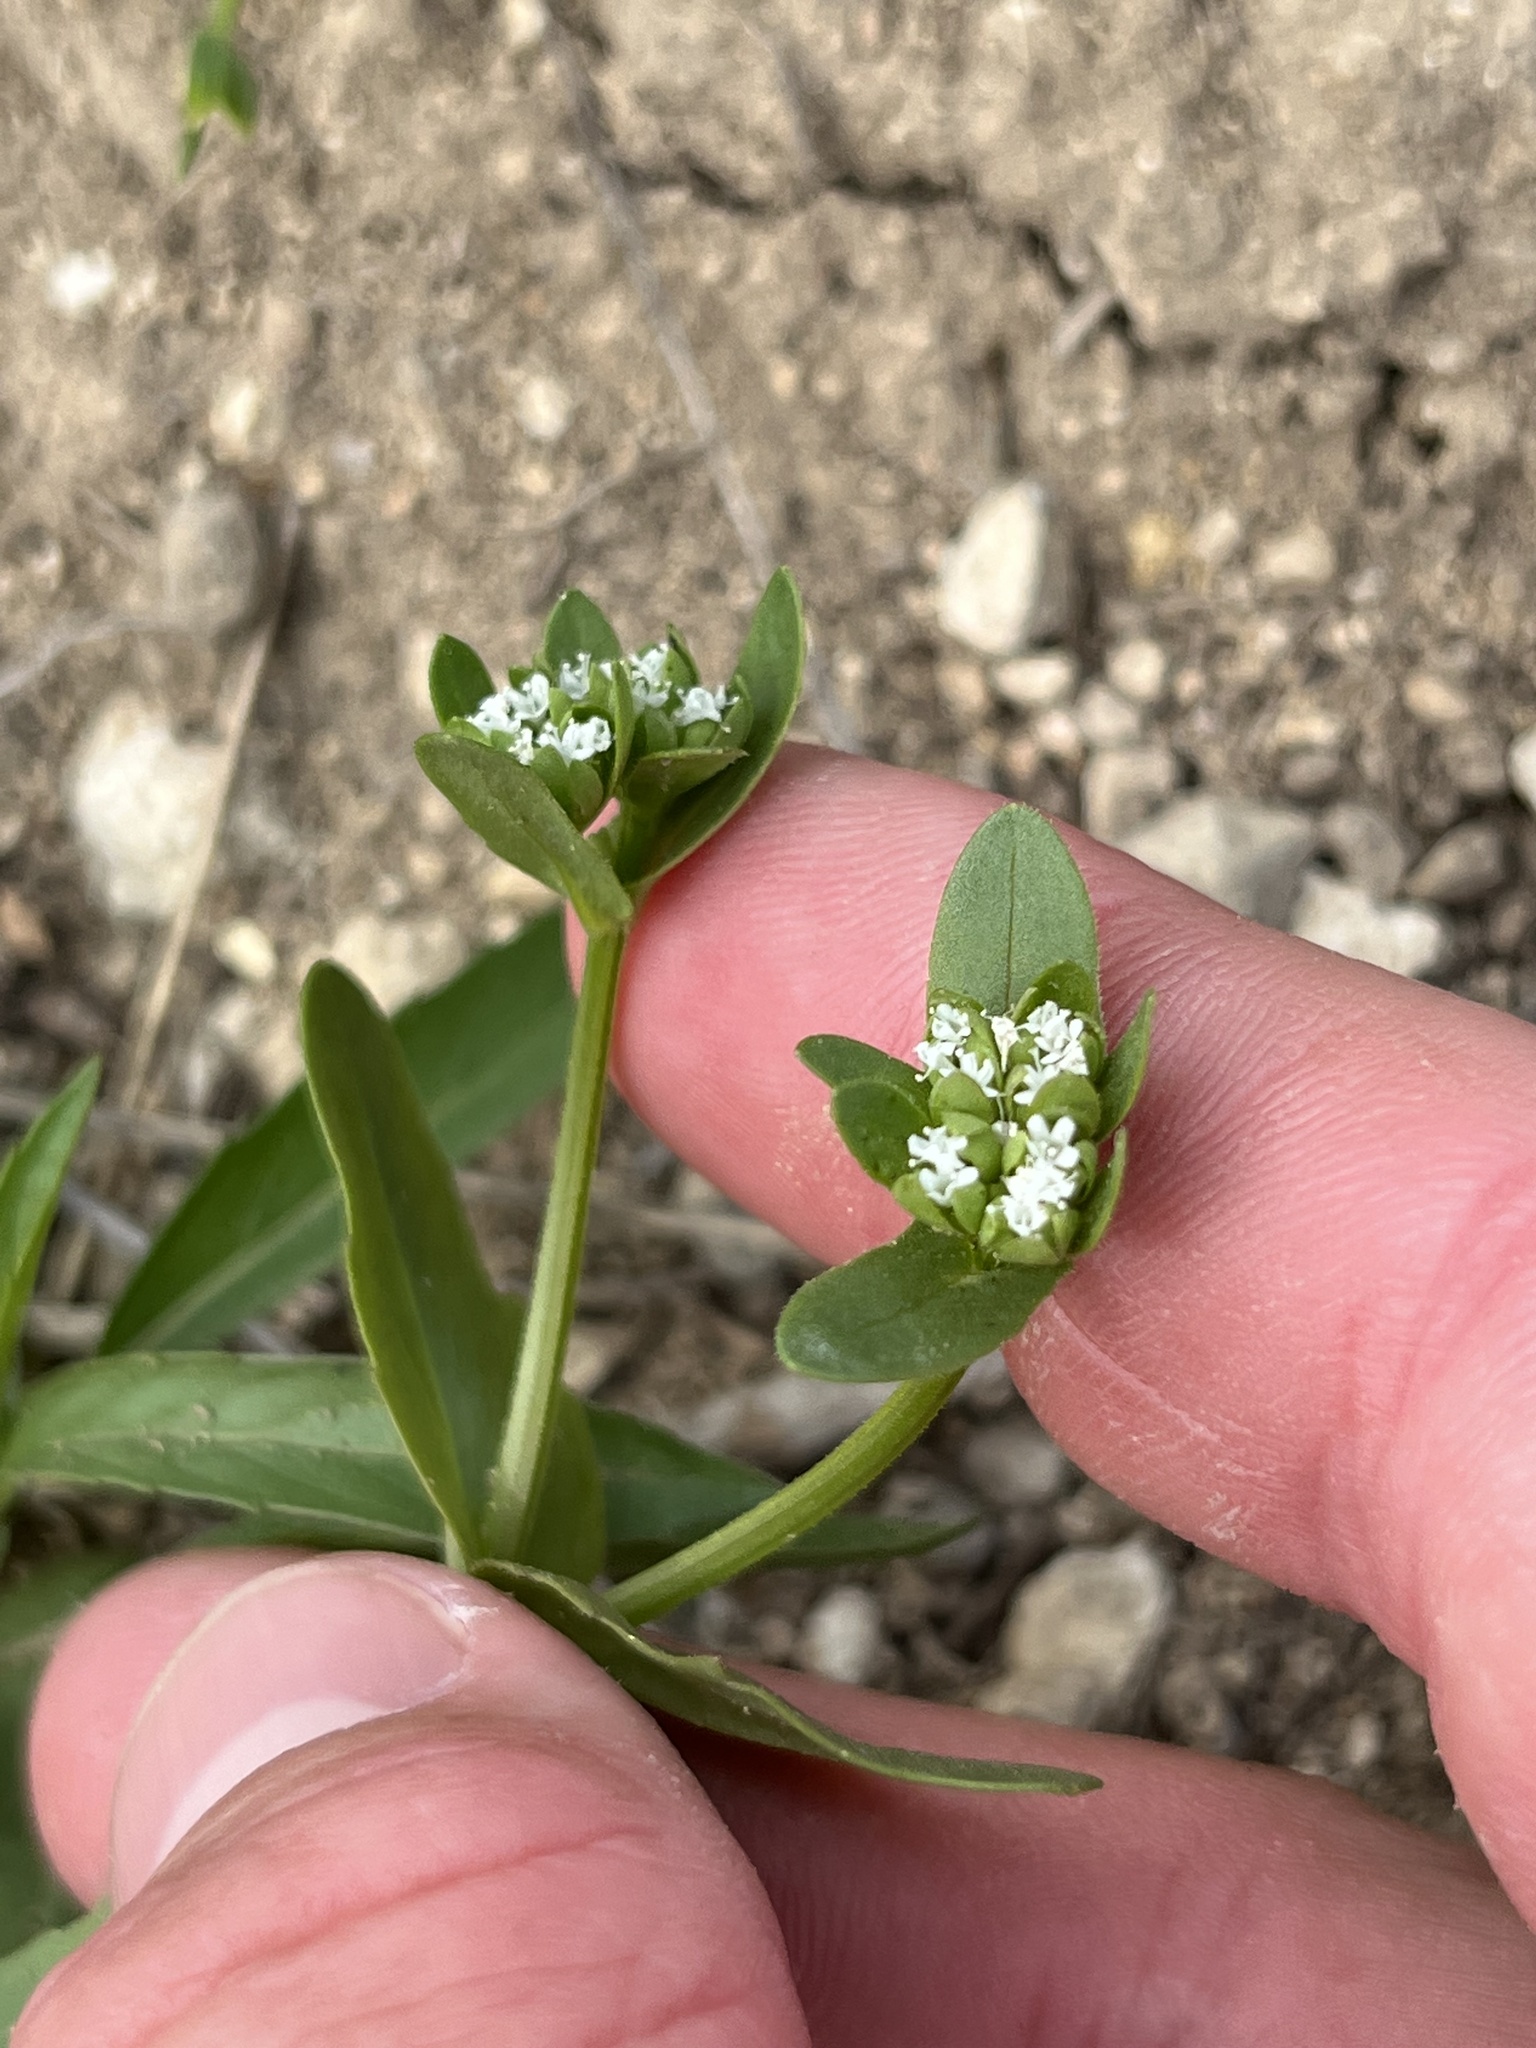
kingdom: Plantae
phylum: Tracheophyta
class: Magnoliopsida
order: Dipsacales
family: Caprifoliaceae
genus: Valerianella
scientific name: Valerianella radiata
